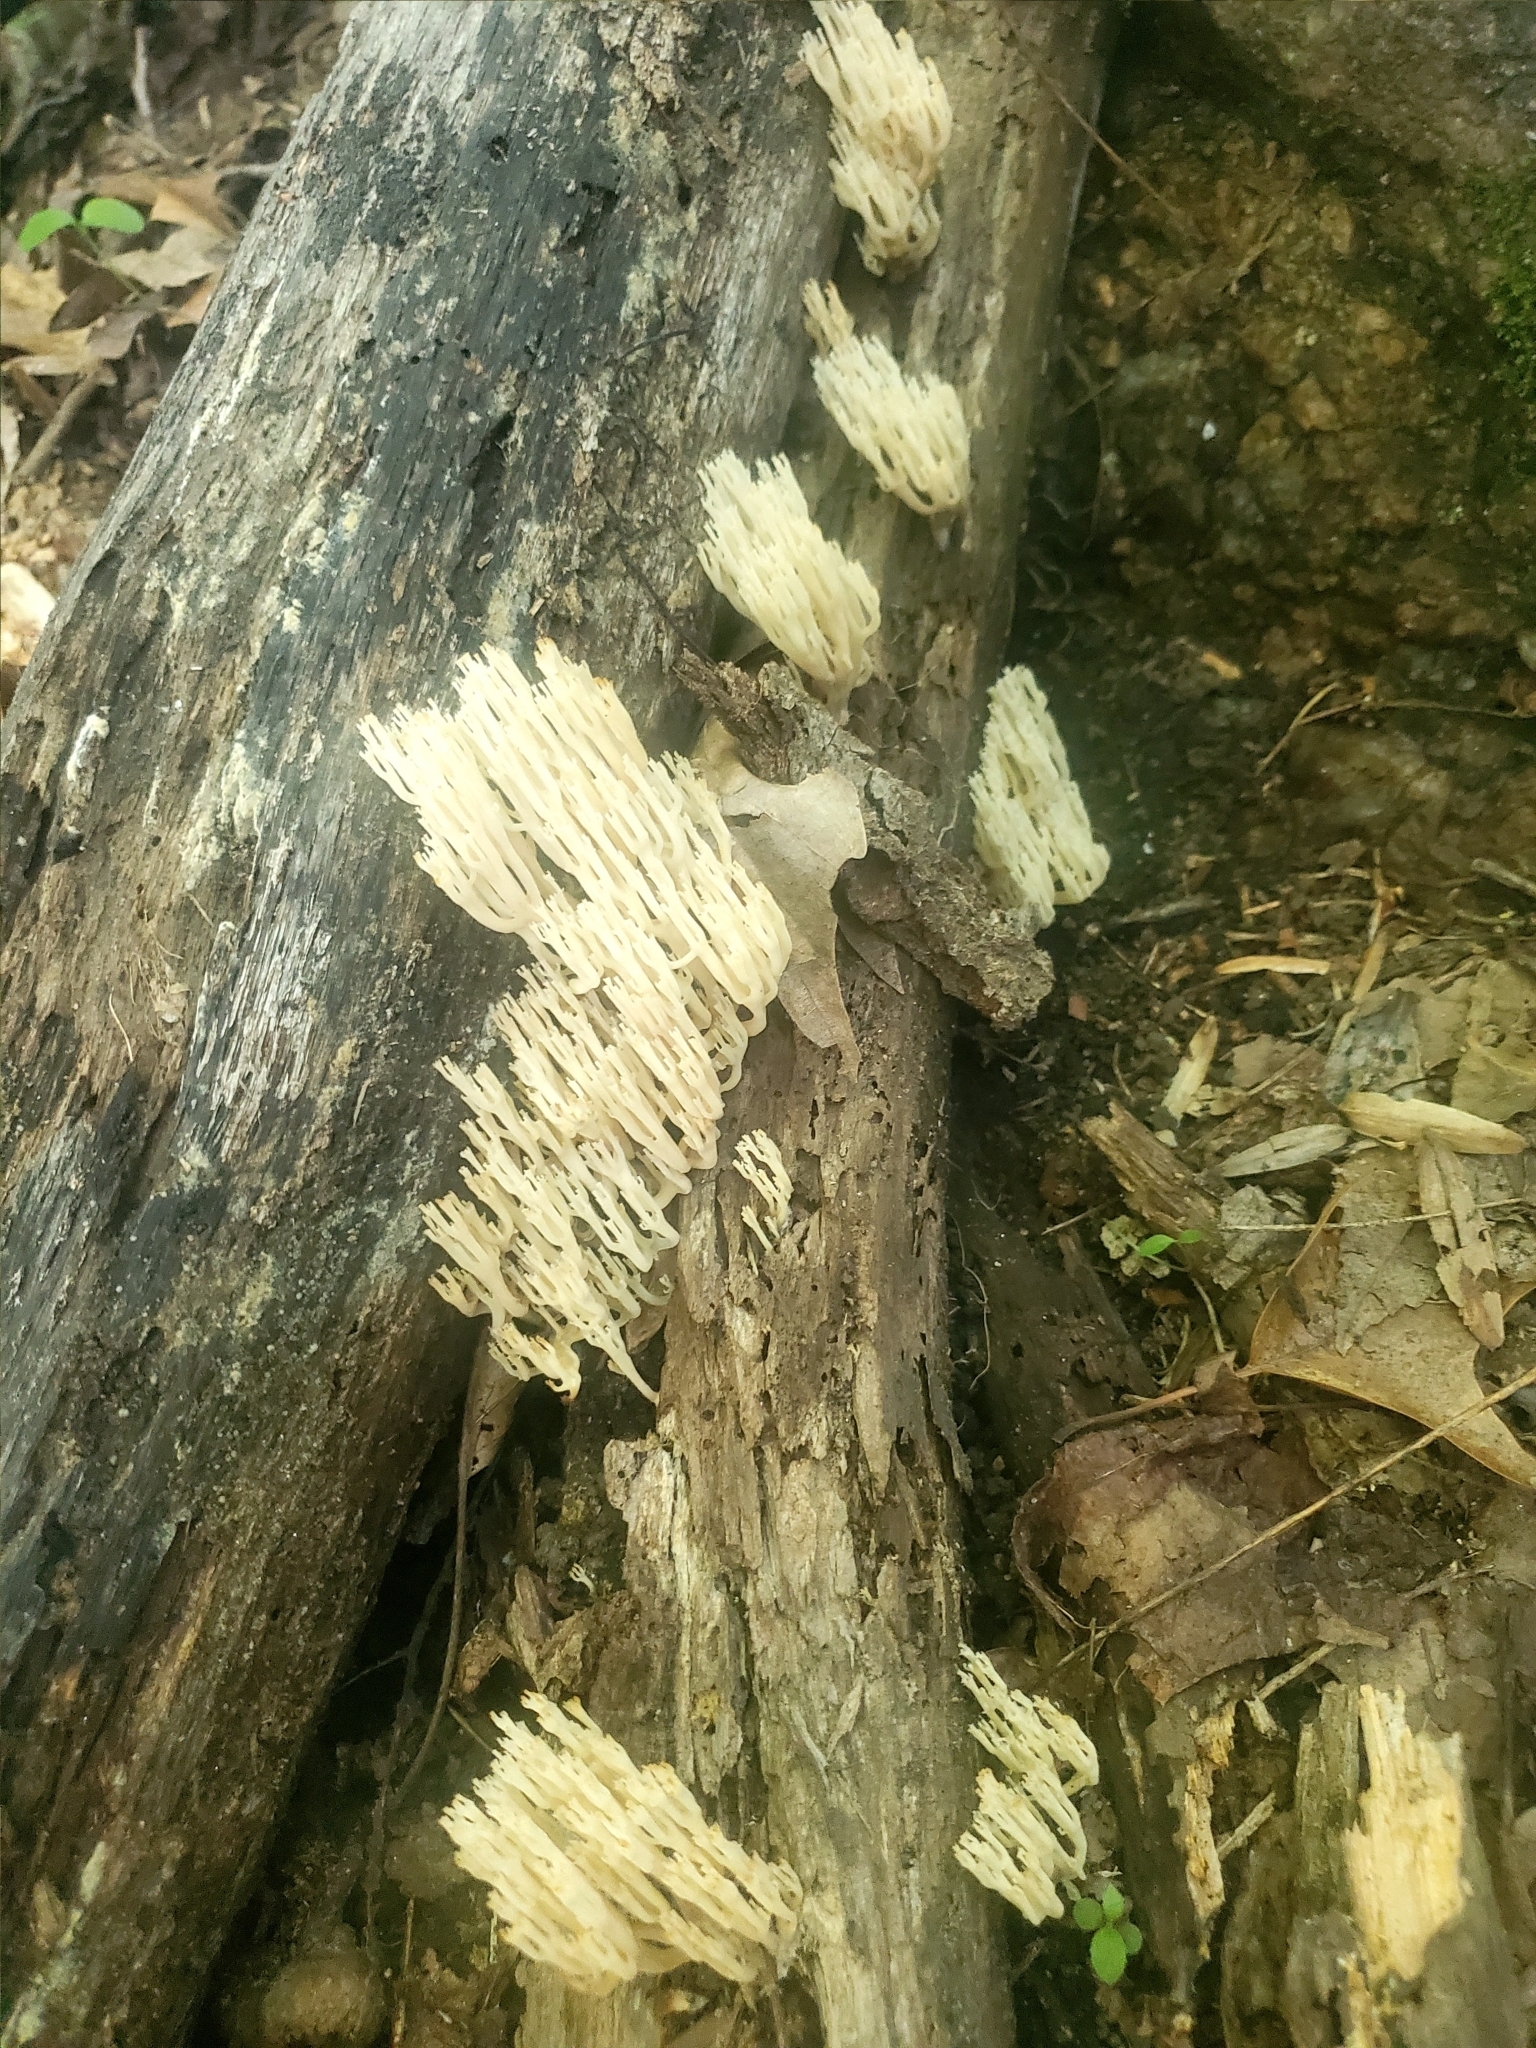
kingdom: Fungi
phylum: Basidiomycota
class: Agaricomycetes
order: Russulales
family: Auriscalpiaceae
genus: Artomyces
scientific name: Artomyces pyxidatus
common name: Crown-tipped coral fungus
